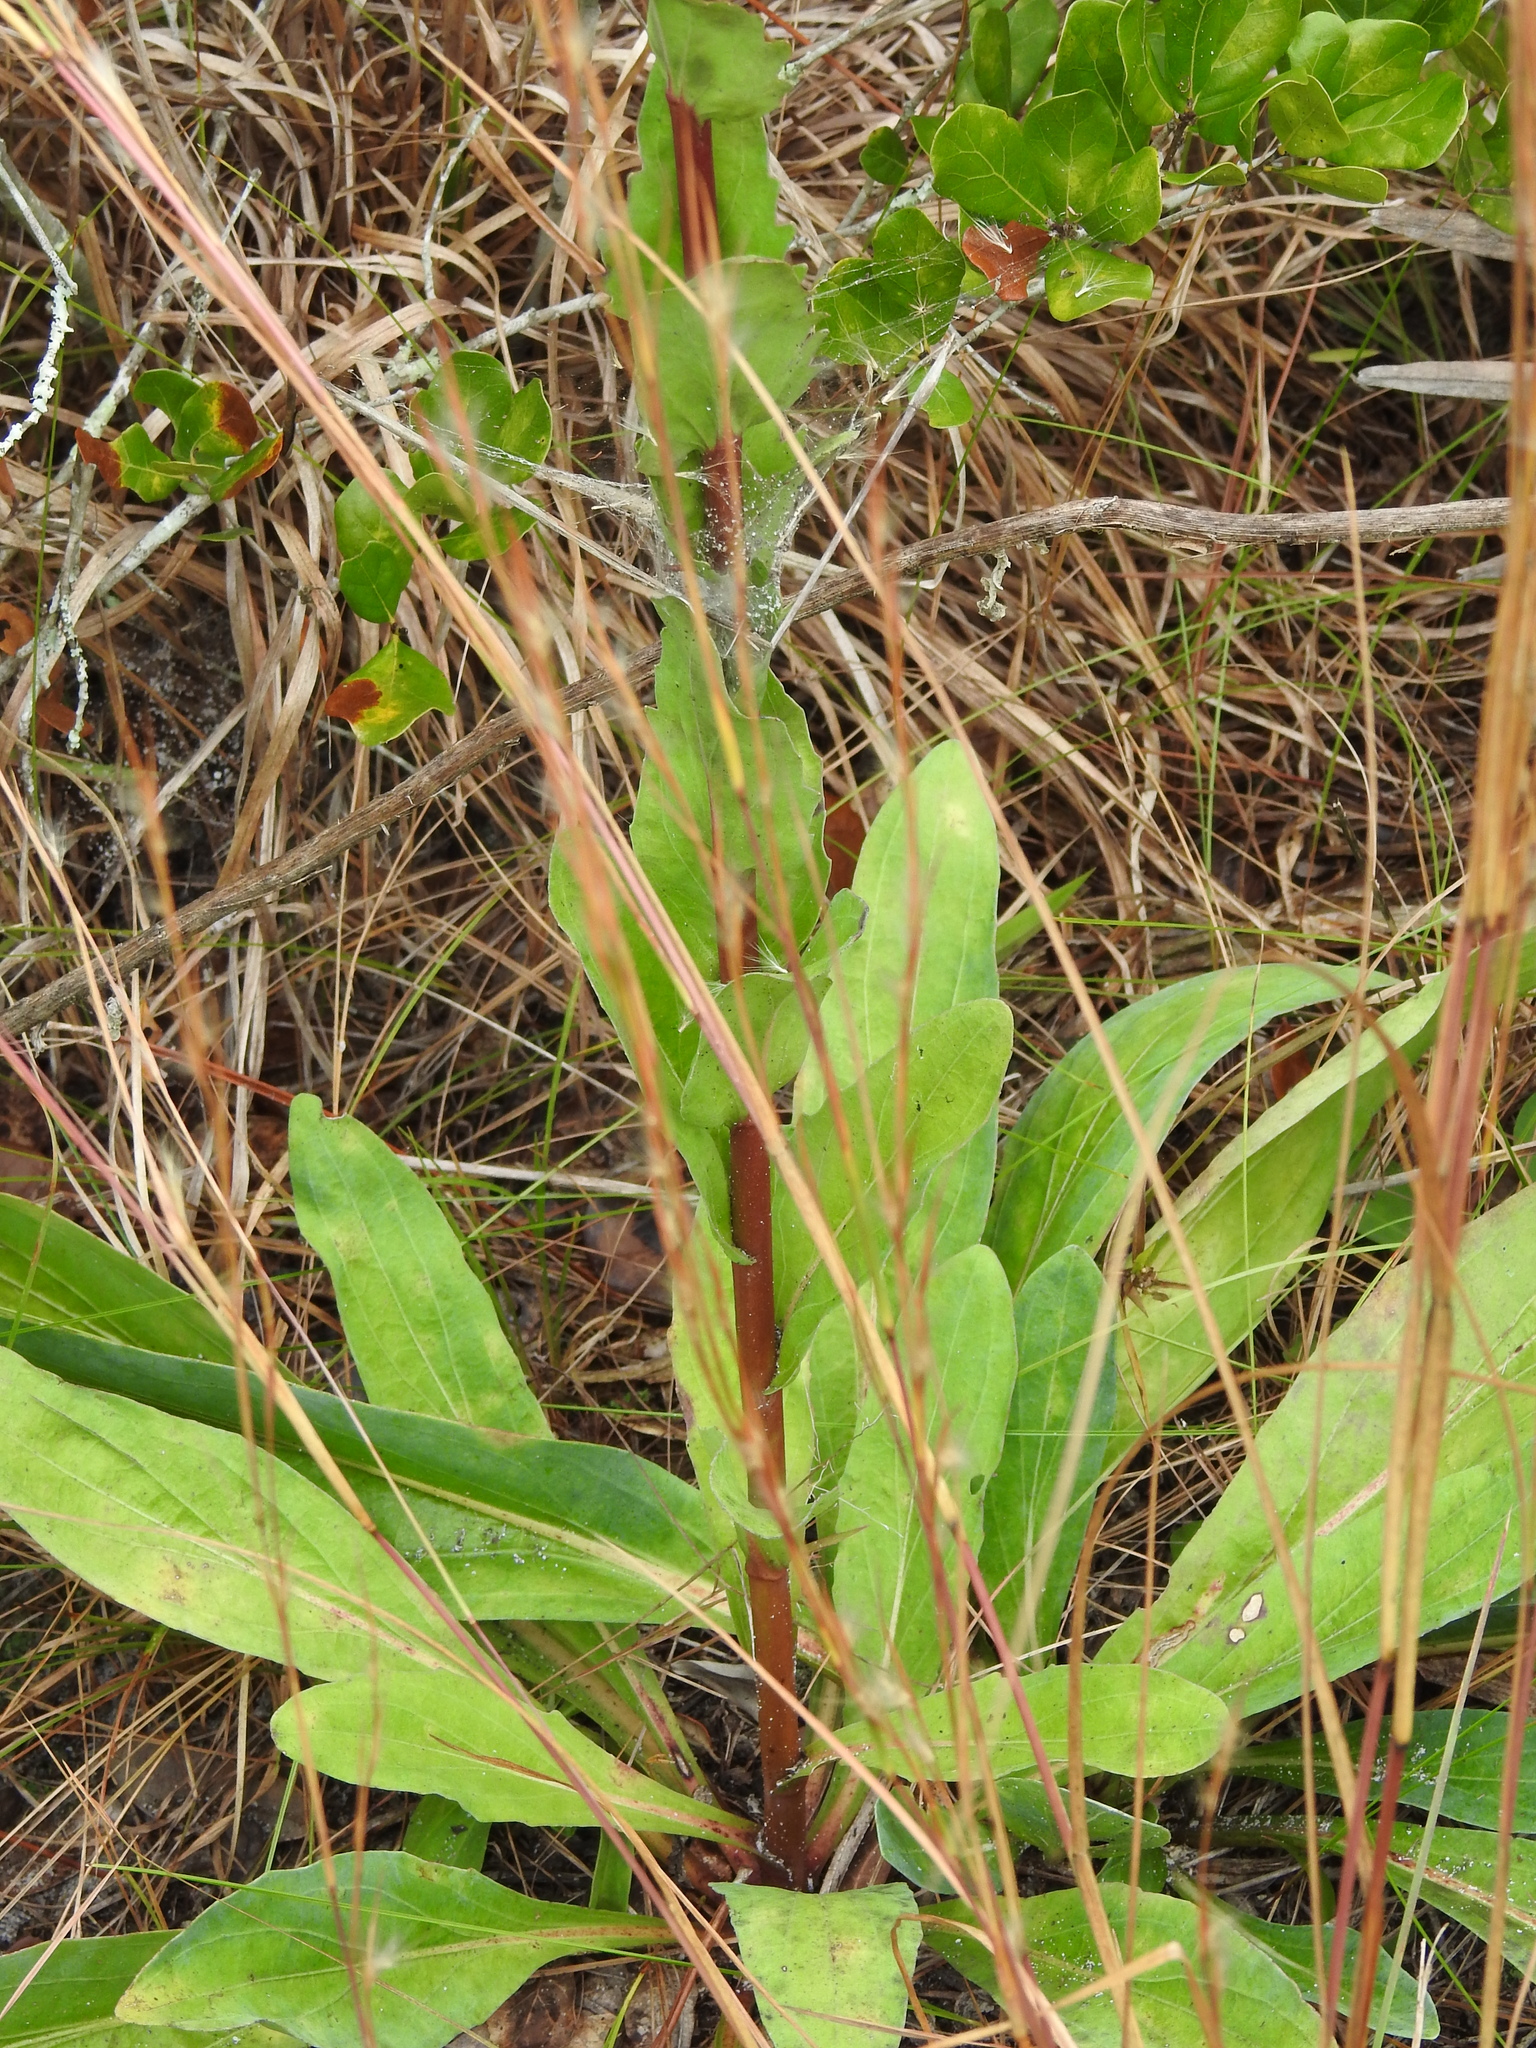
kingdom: Plantae
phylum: Tracheophyta
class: Magnoliopsida
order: Asterales
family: Asteraceae
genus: Carphephorus
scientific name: Carphephorus odoratissimus
